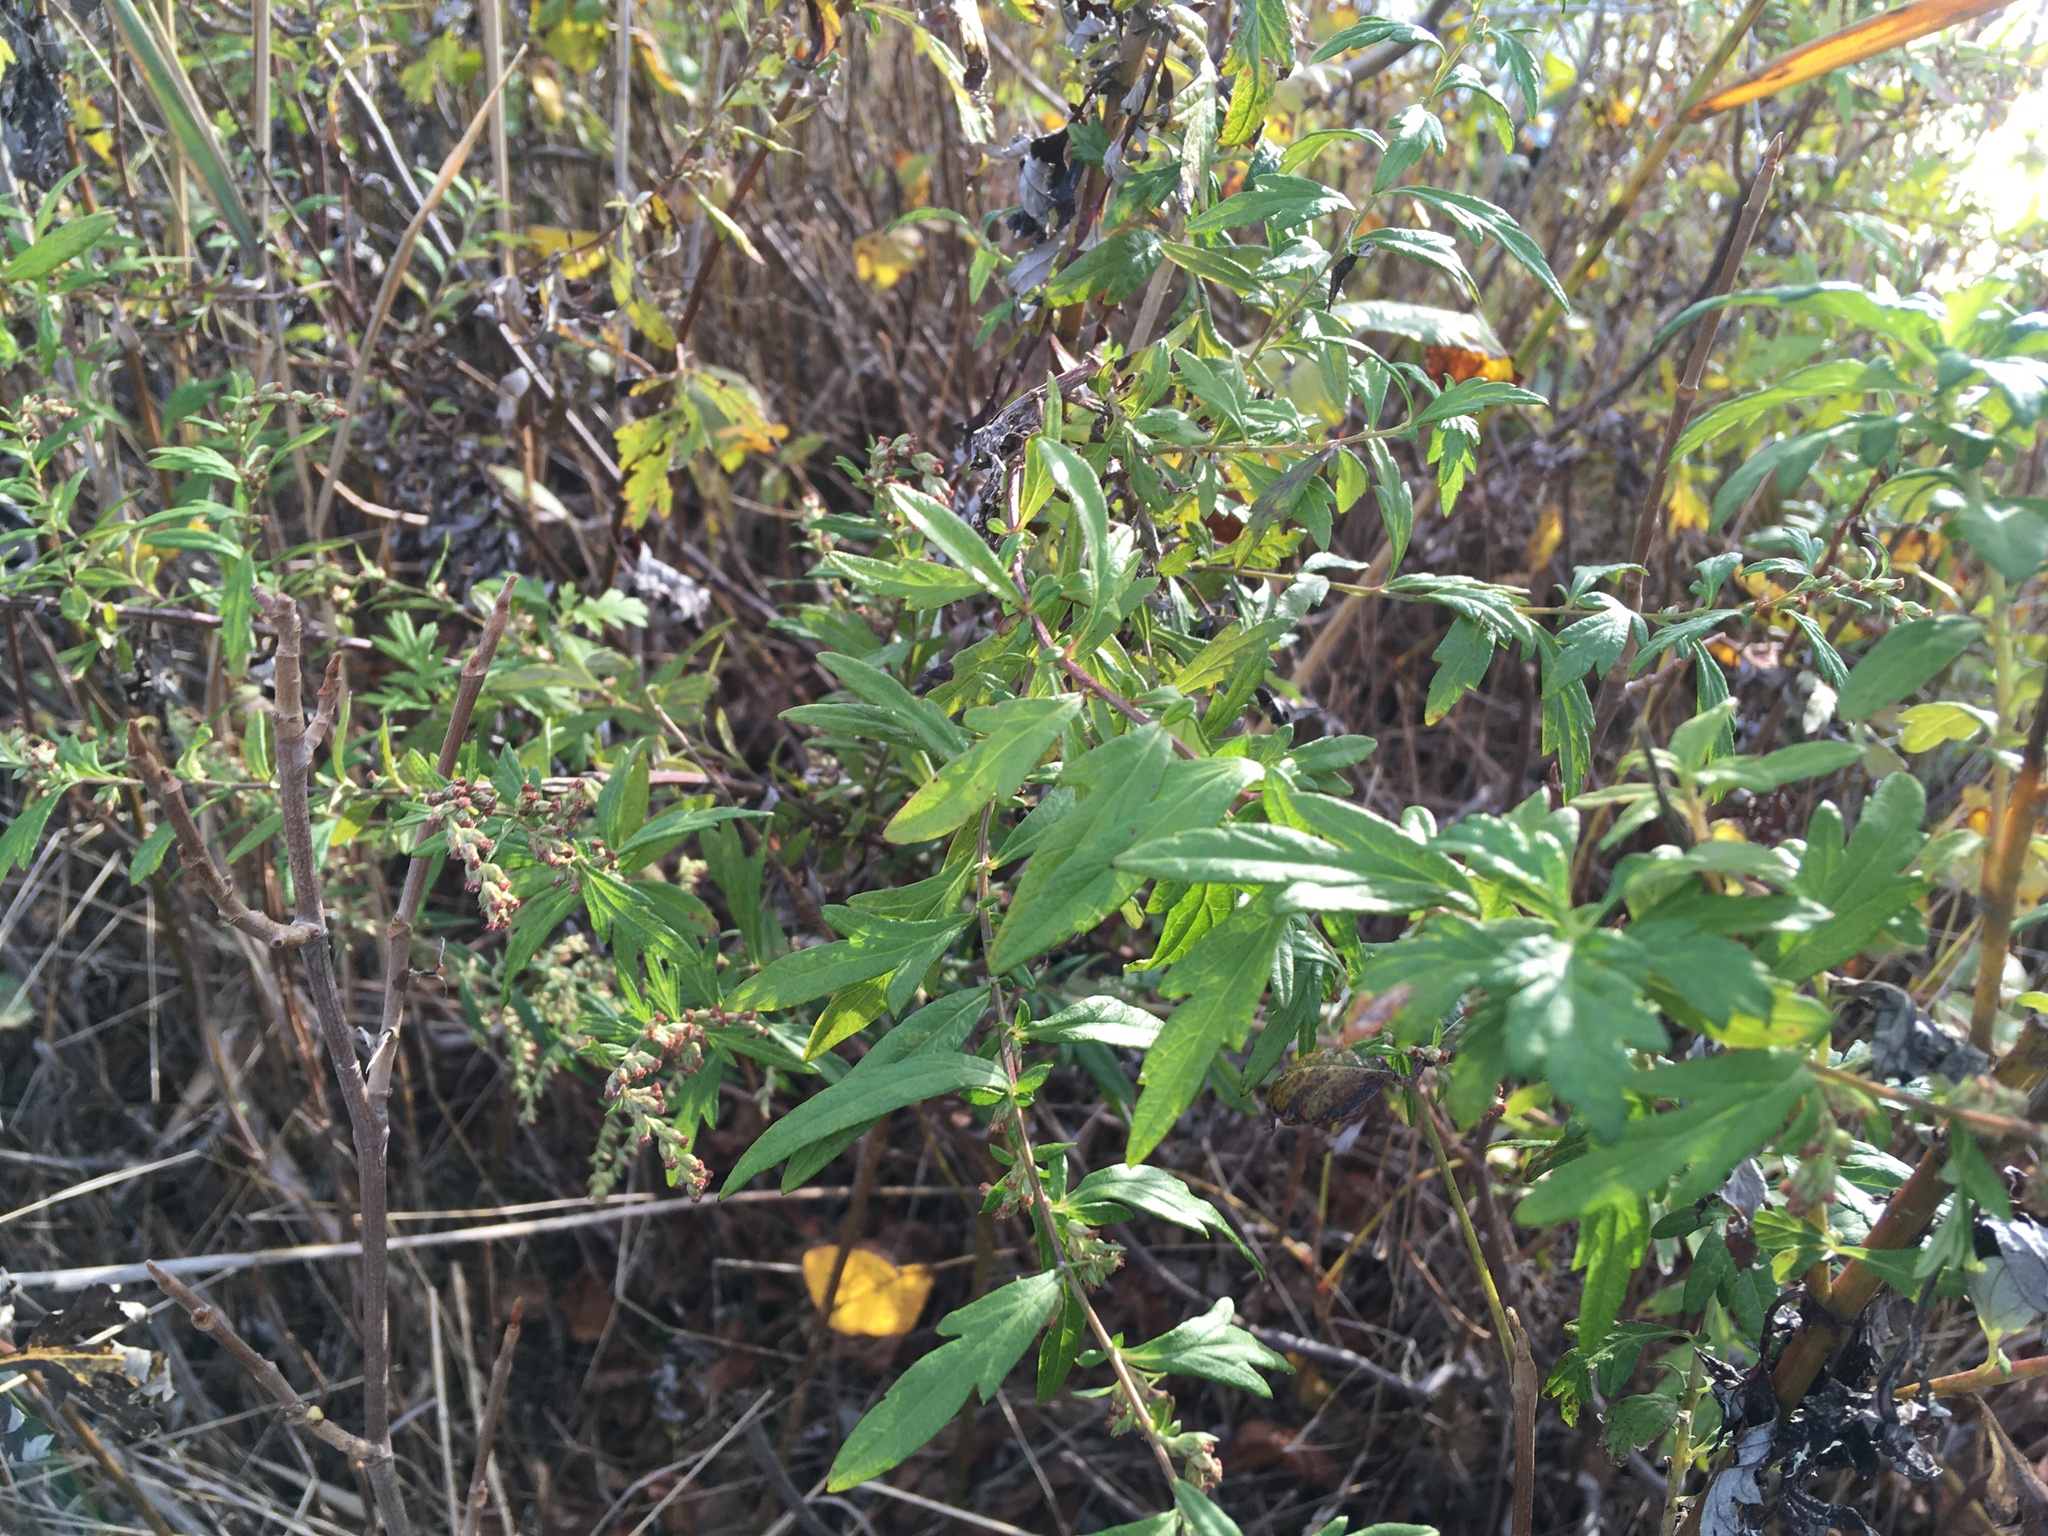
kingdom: Plantae
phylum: Tracheophyta
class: Magnoliopsida
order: Asterales
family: Asteraceae
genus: Artemisia
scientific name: Artemisia vulgaris
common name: Mugwort
